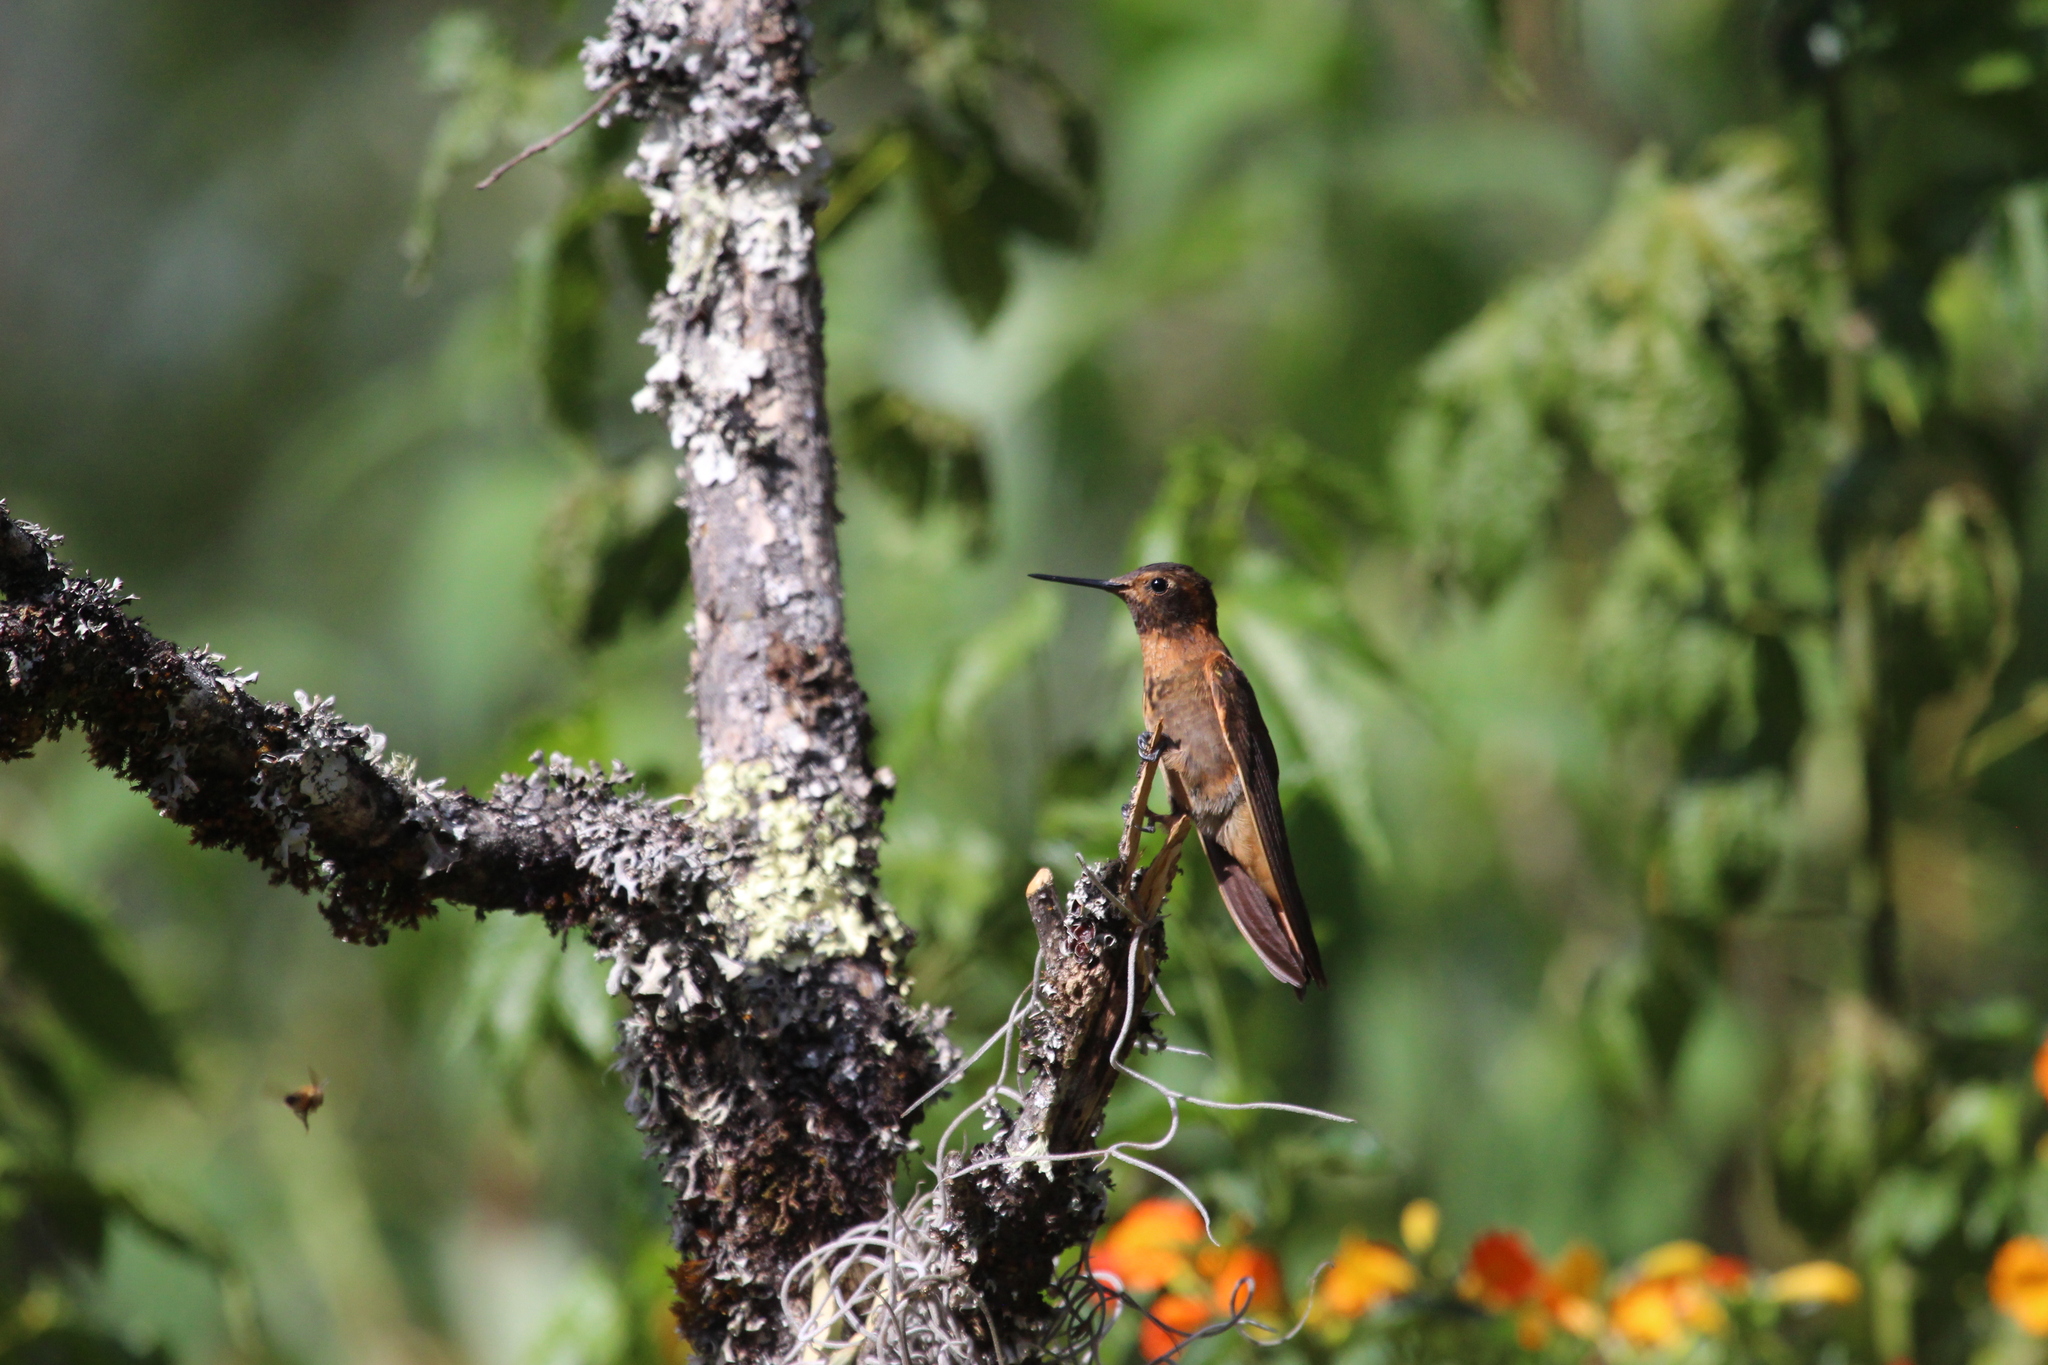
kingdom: Animalia
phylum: Chordata
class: Aves
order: Apodiformes
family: Trochilidae
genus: Aglaeactis
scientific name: Aglaeactis cupripennis
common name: Shining sunbeam
